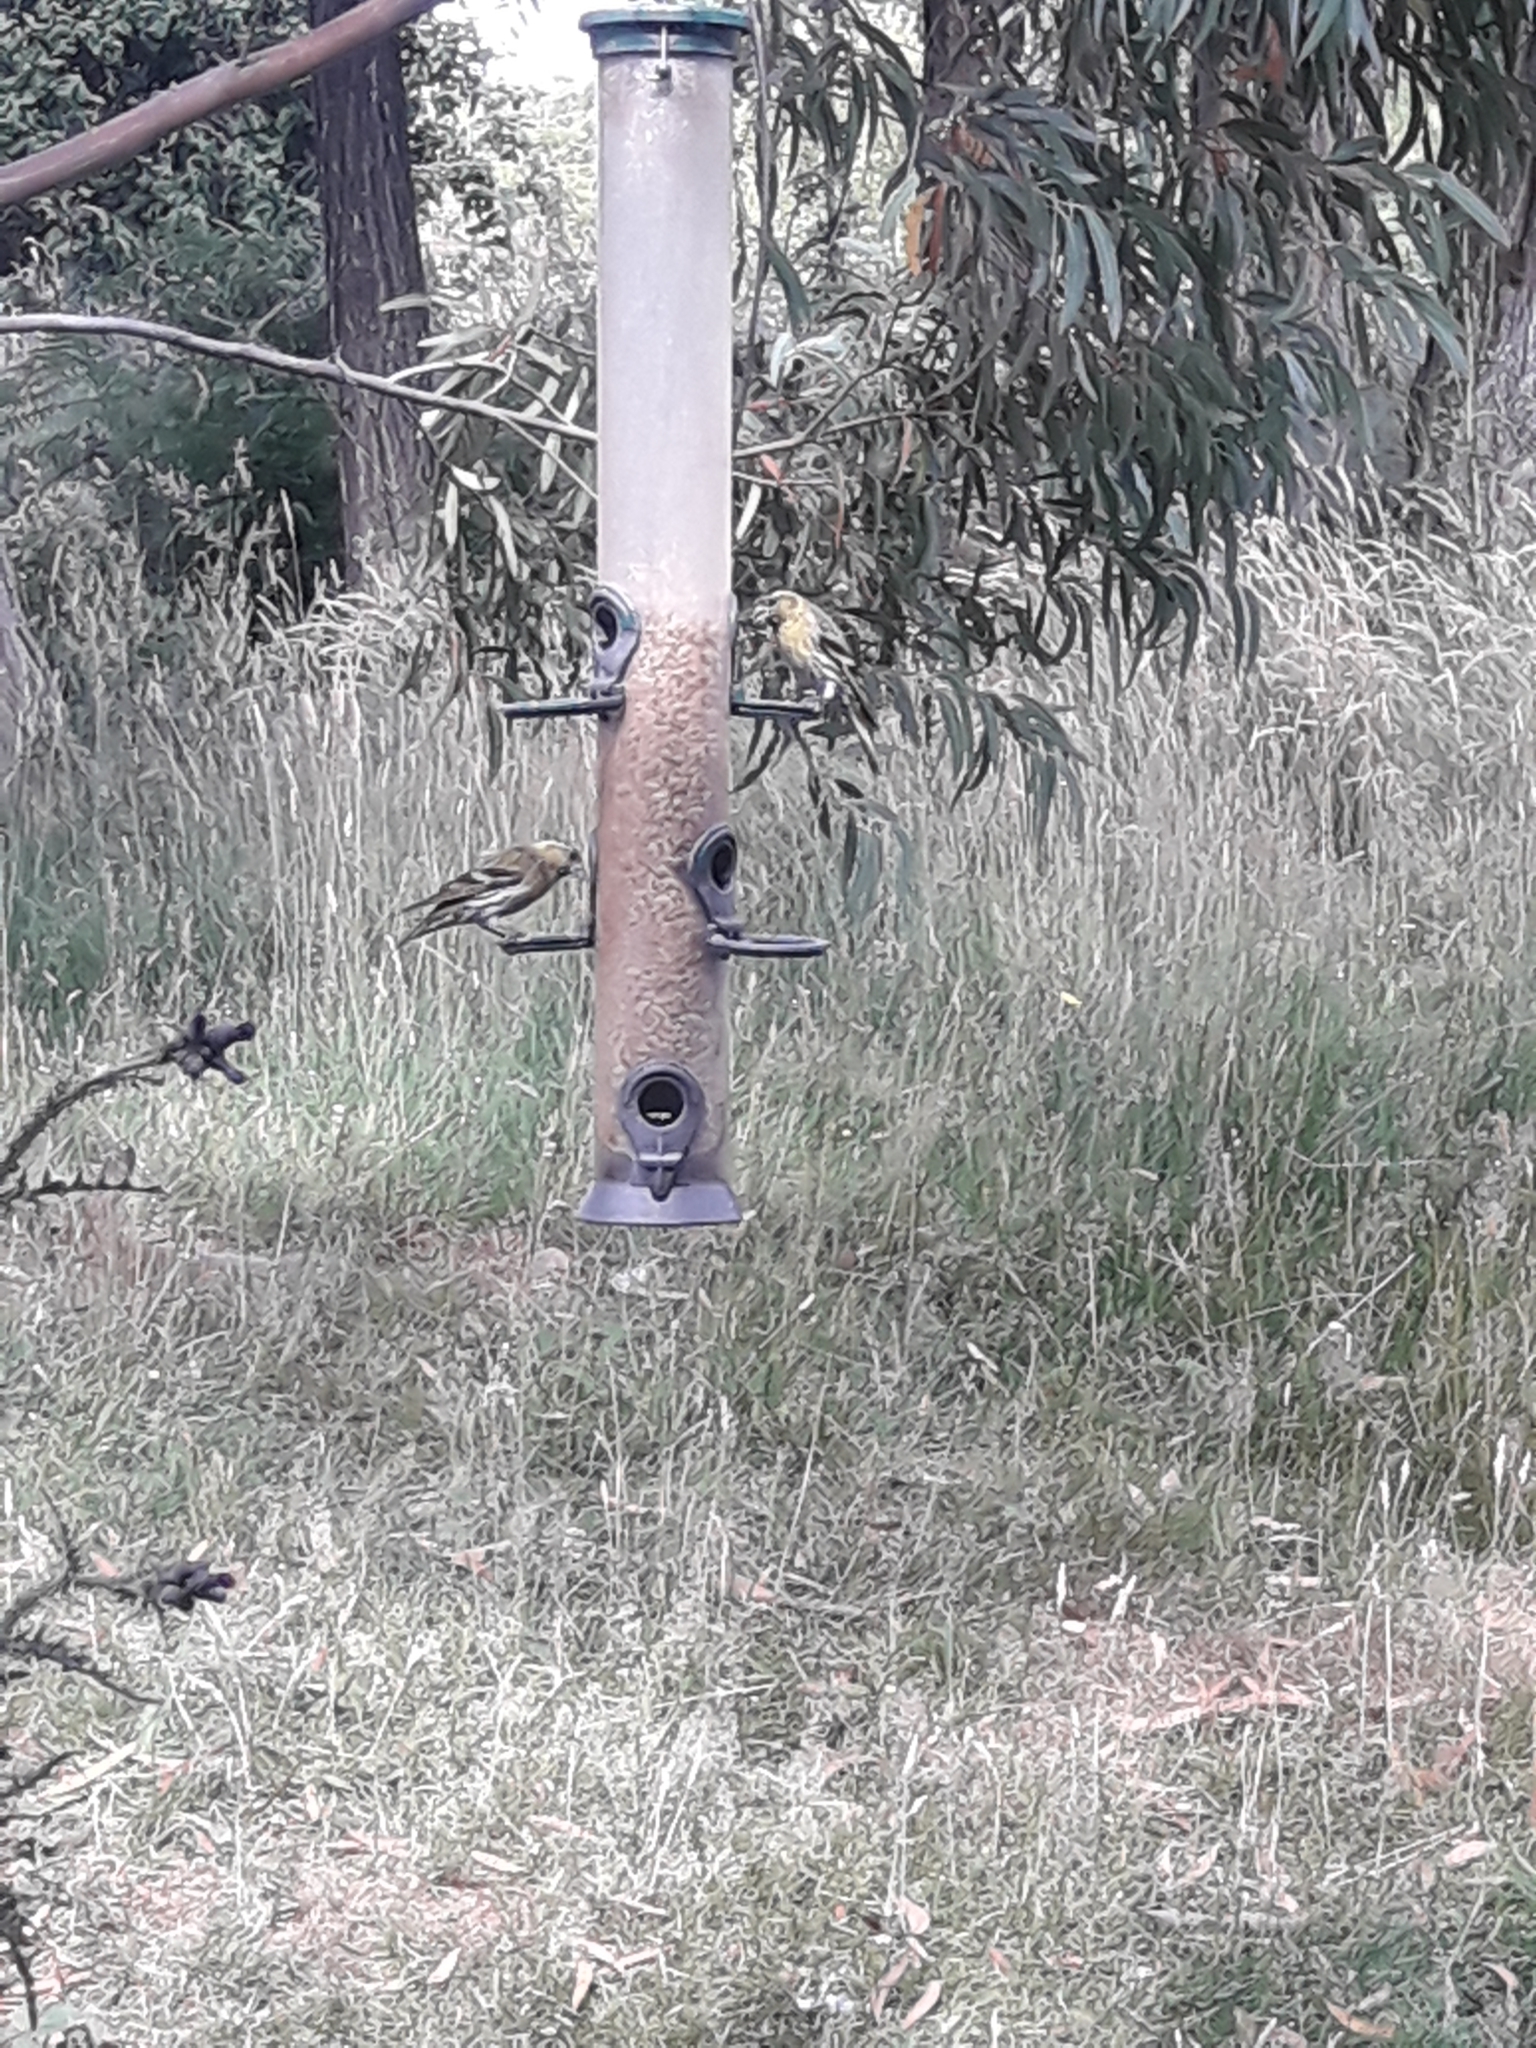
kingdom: Animalia
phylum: Chordata
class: Aves
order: Passeriformes
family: Fringillidae
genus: Spinus
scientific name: Spinus spinus
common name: Eurasian siskin
